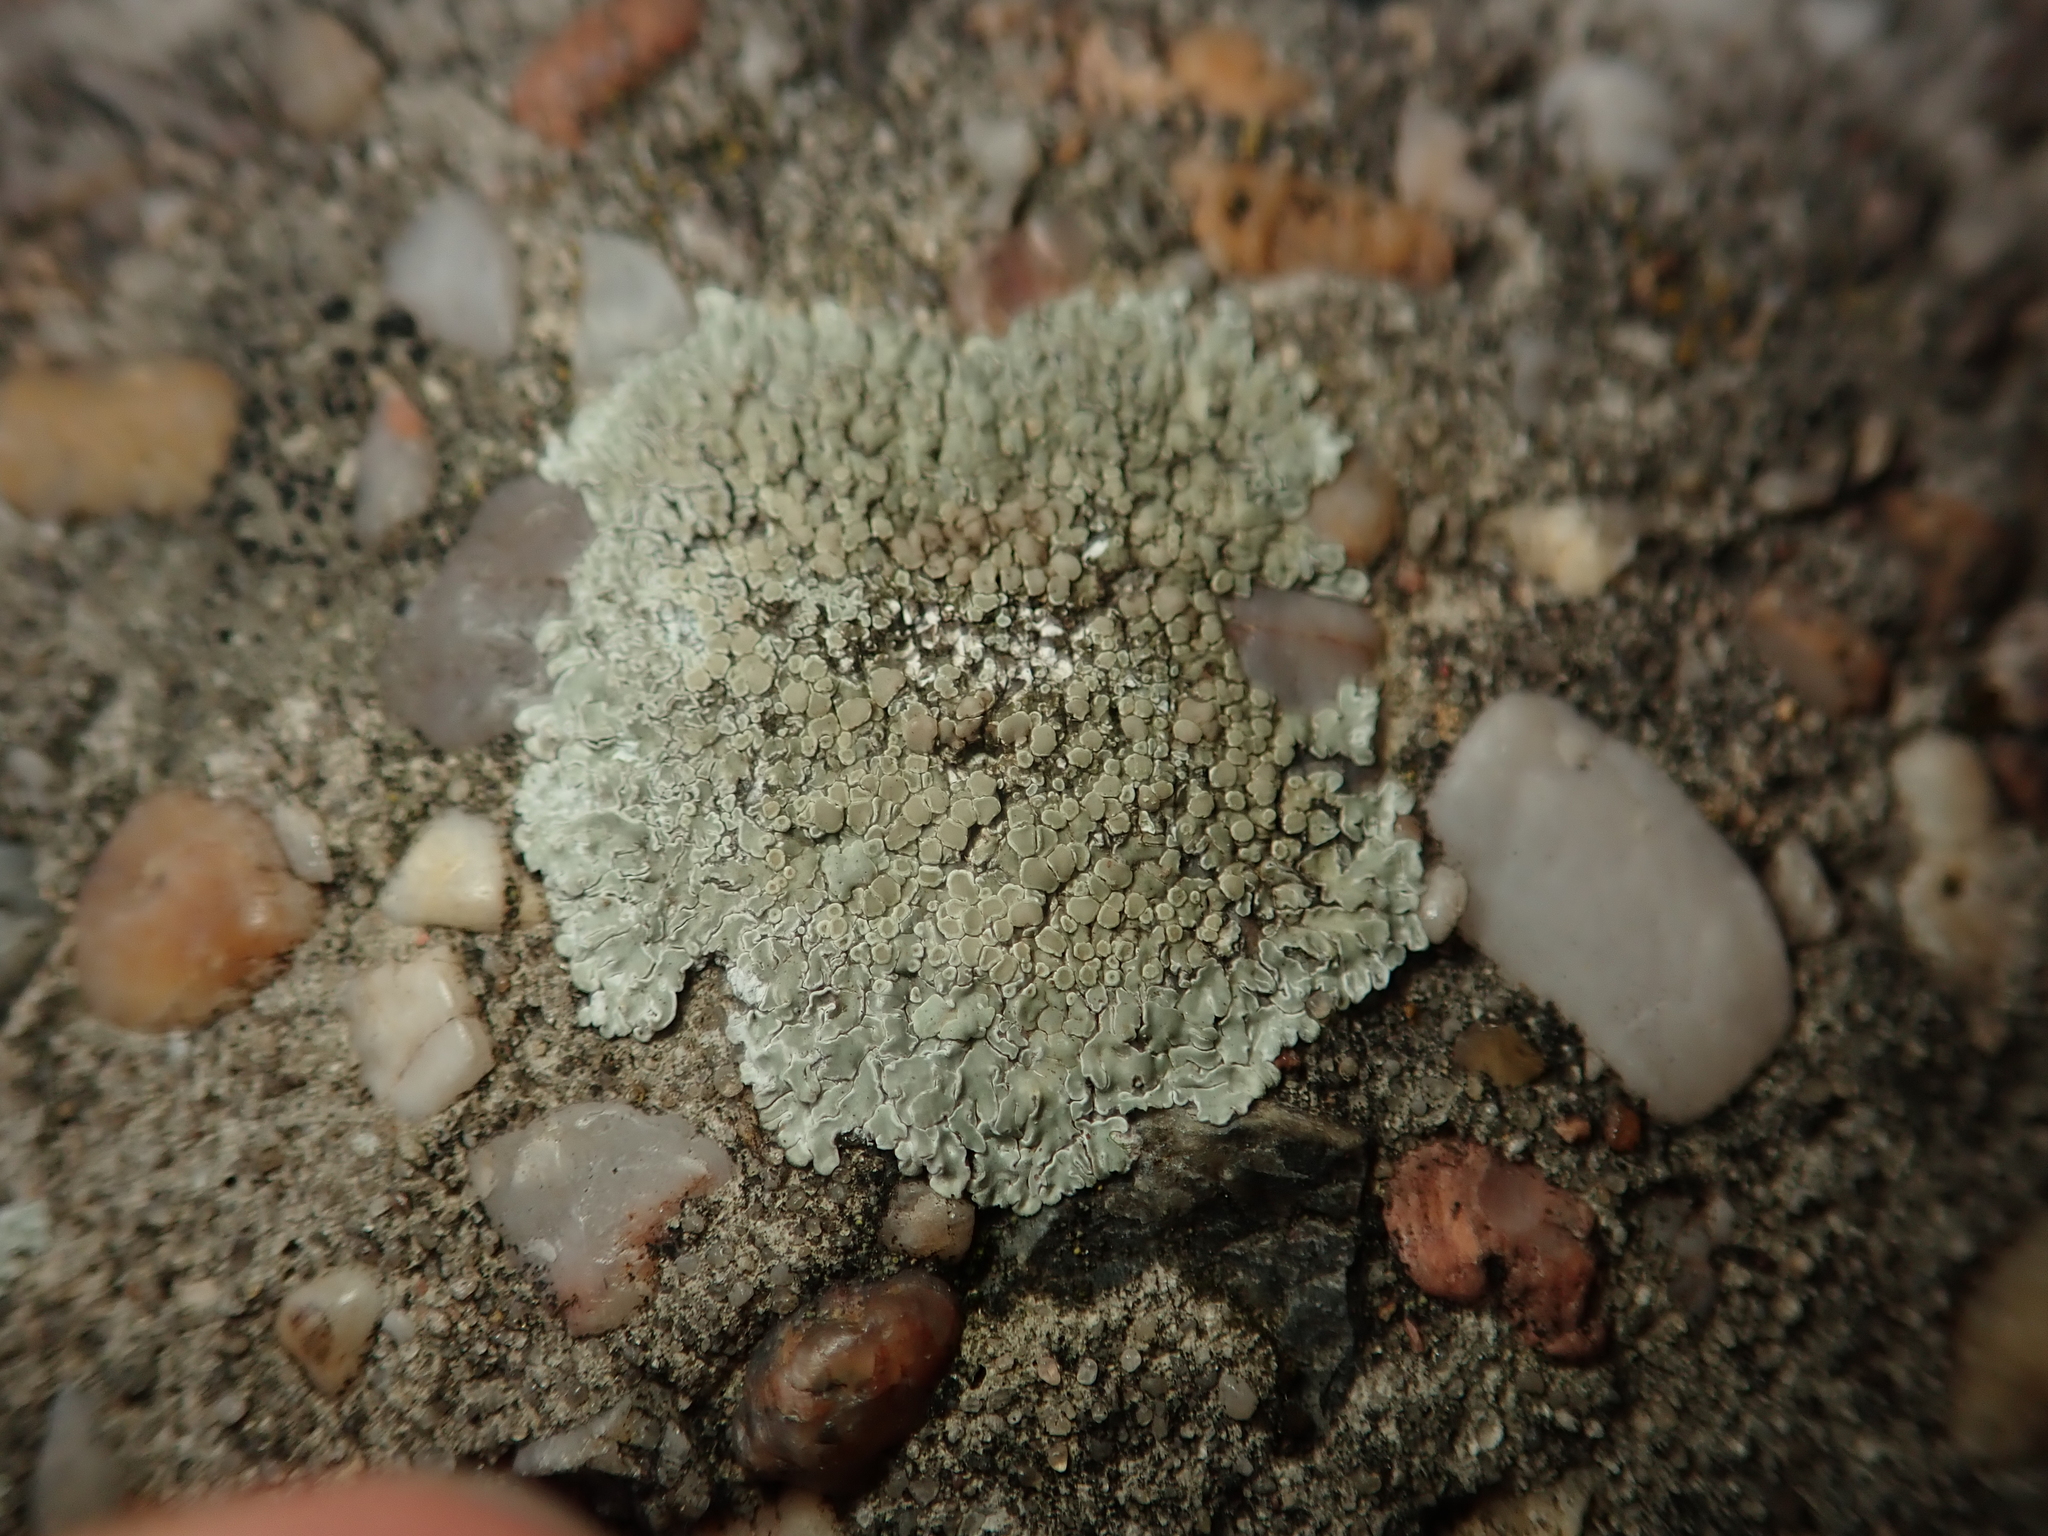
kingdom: Fungi
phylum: Ascomycota
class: Lecanoromycetes
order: Lecanorales
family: Lecanoraceae
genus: Protoparmeliopsis
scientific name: Protoparmeliopsis muralis
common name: Stonewall rim lichen
